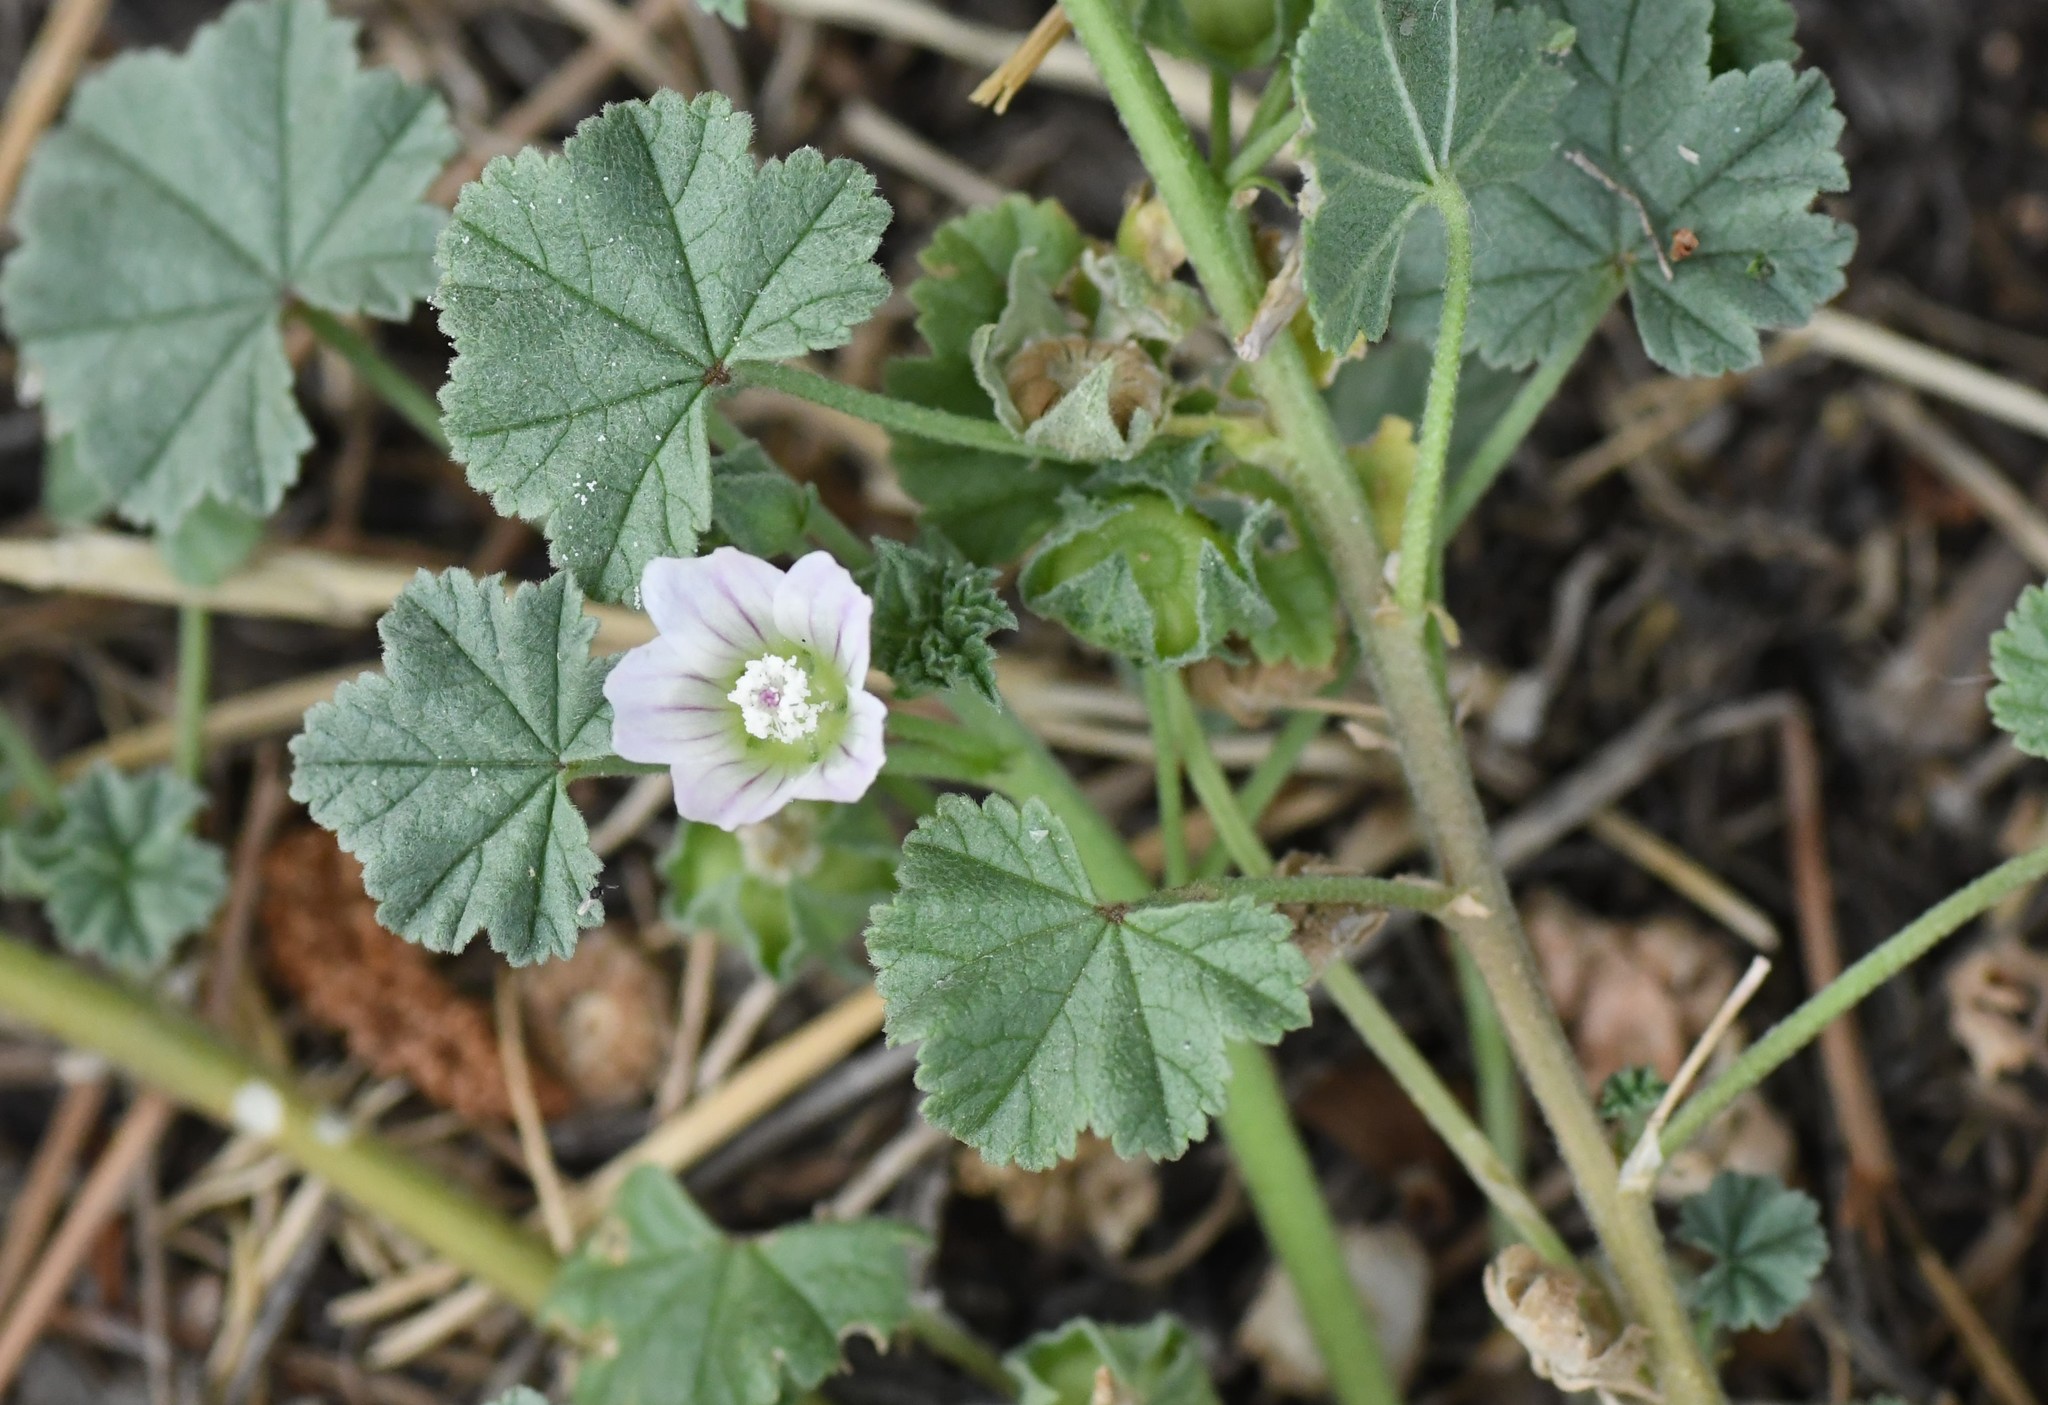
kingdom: Plantae
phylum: Tracheophyta
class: Magnoliopsida
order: Malvales
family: Malvaceae
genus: Malva
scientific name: Malva neglecta
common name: Common mallow
